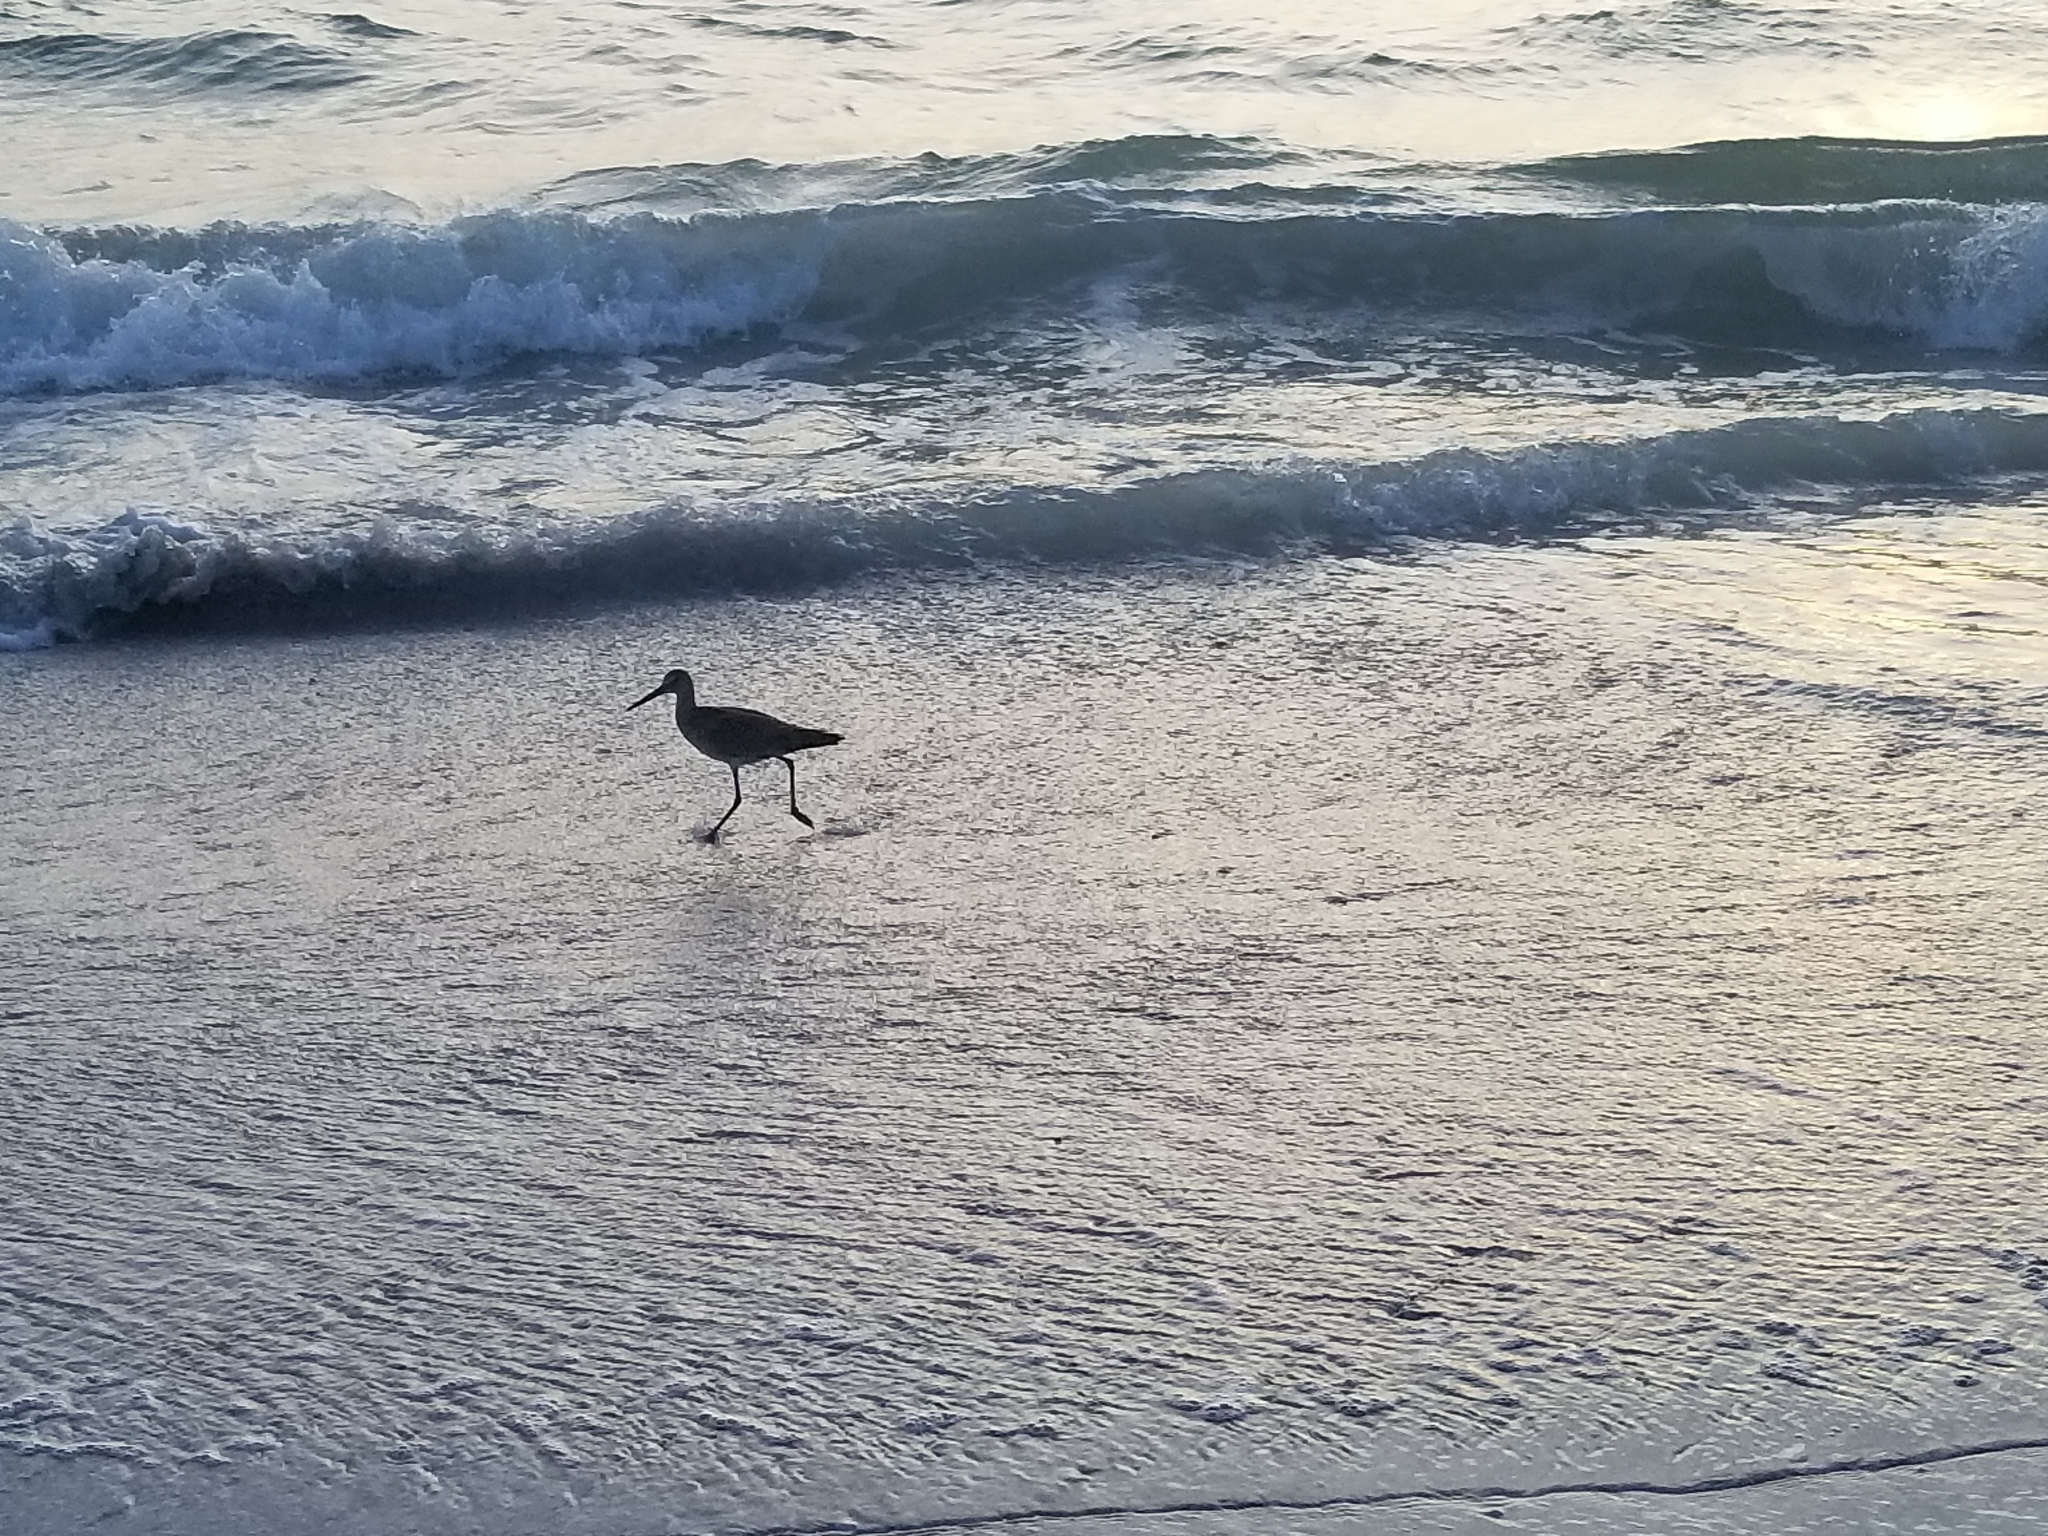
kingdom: Animalia
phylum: Chordata
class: Aves
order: Charadriiformes
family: Scolopacidae
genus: Tringa
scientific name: Tringa semipalmata
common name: Willet
